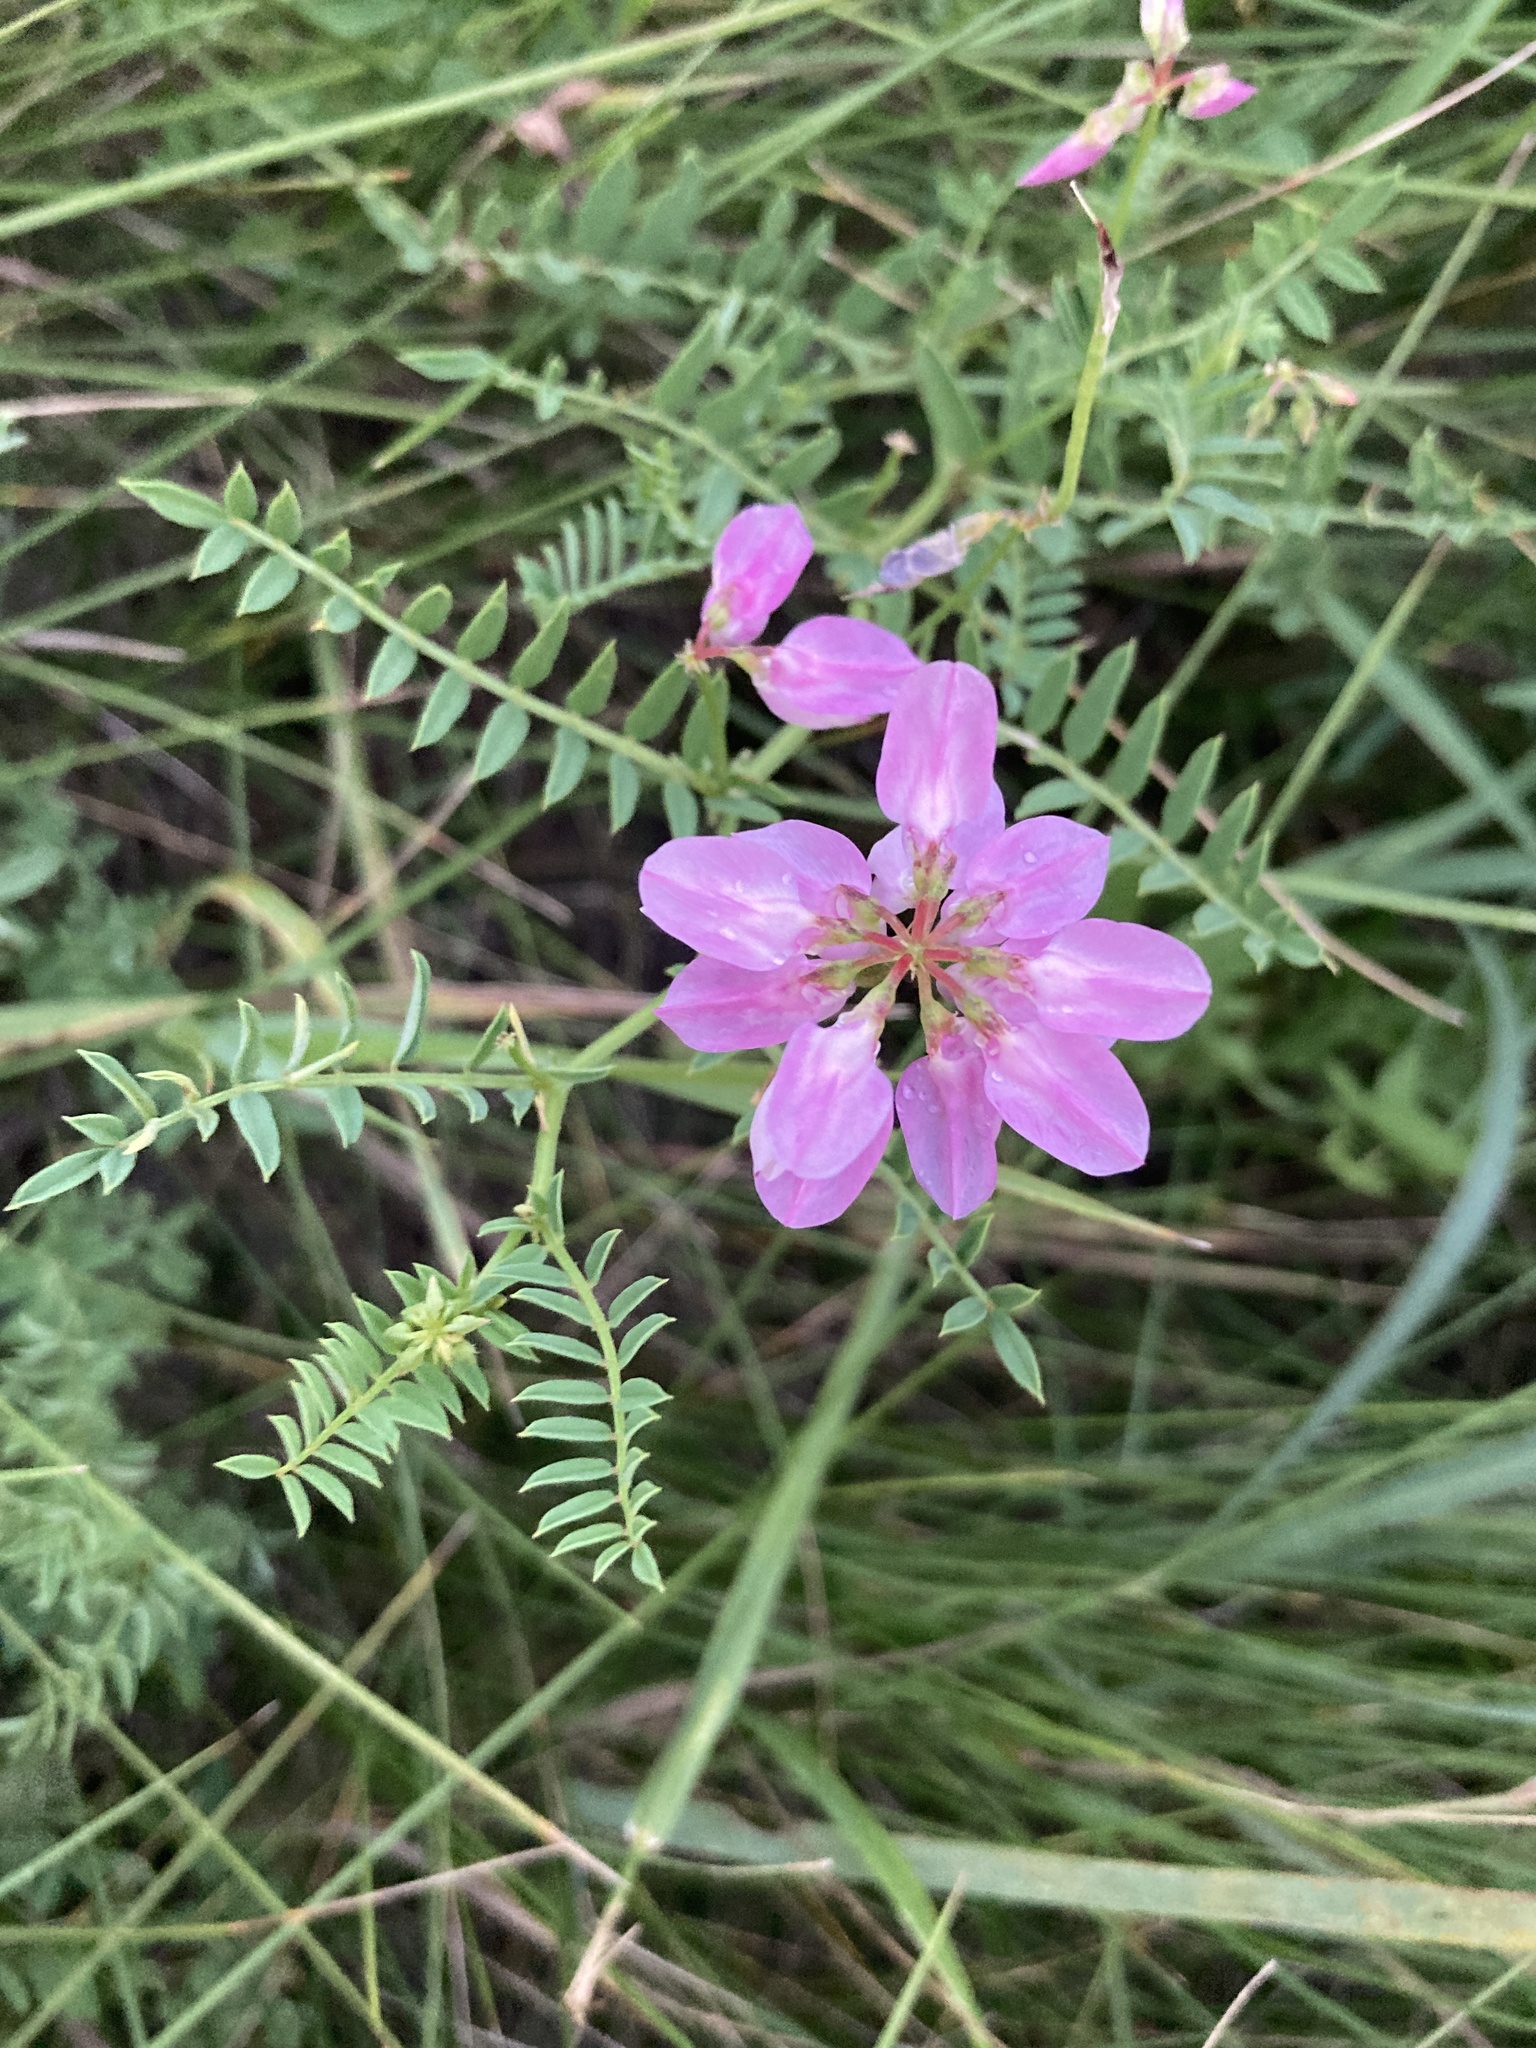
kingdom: Plantae
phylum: Tracheophyta
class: Magnoliopsida
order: Fabales
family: Fabaceae
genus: Coronilla
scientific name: Coronilla varia
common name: Crownvetch
